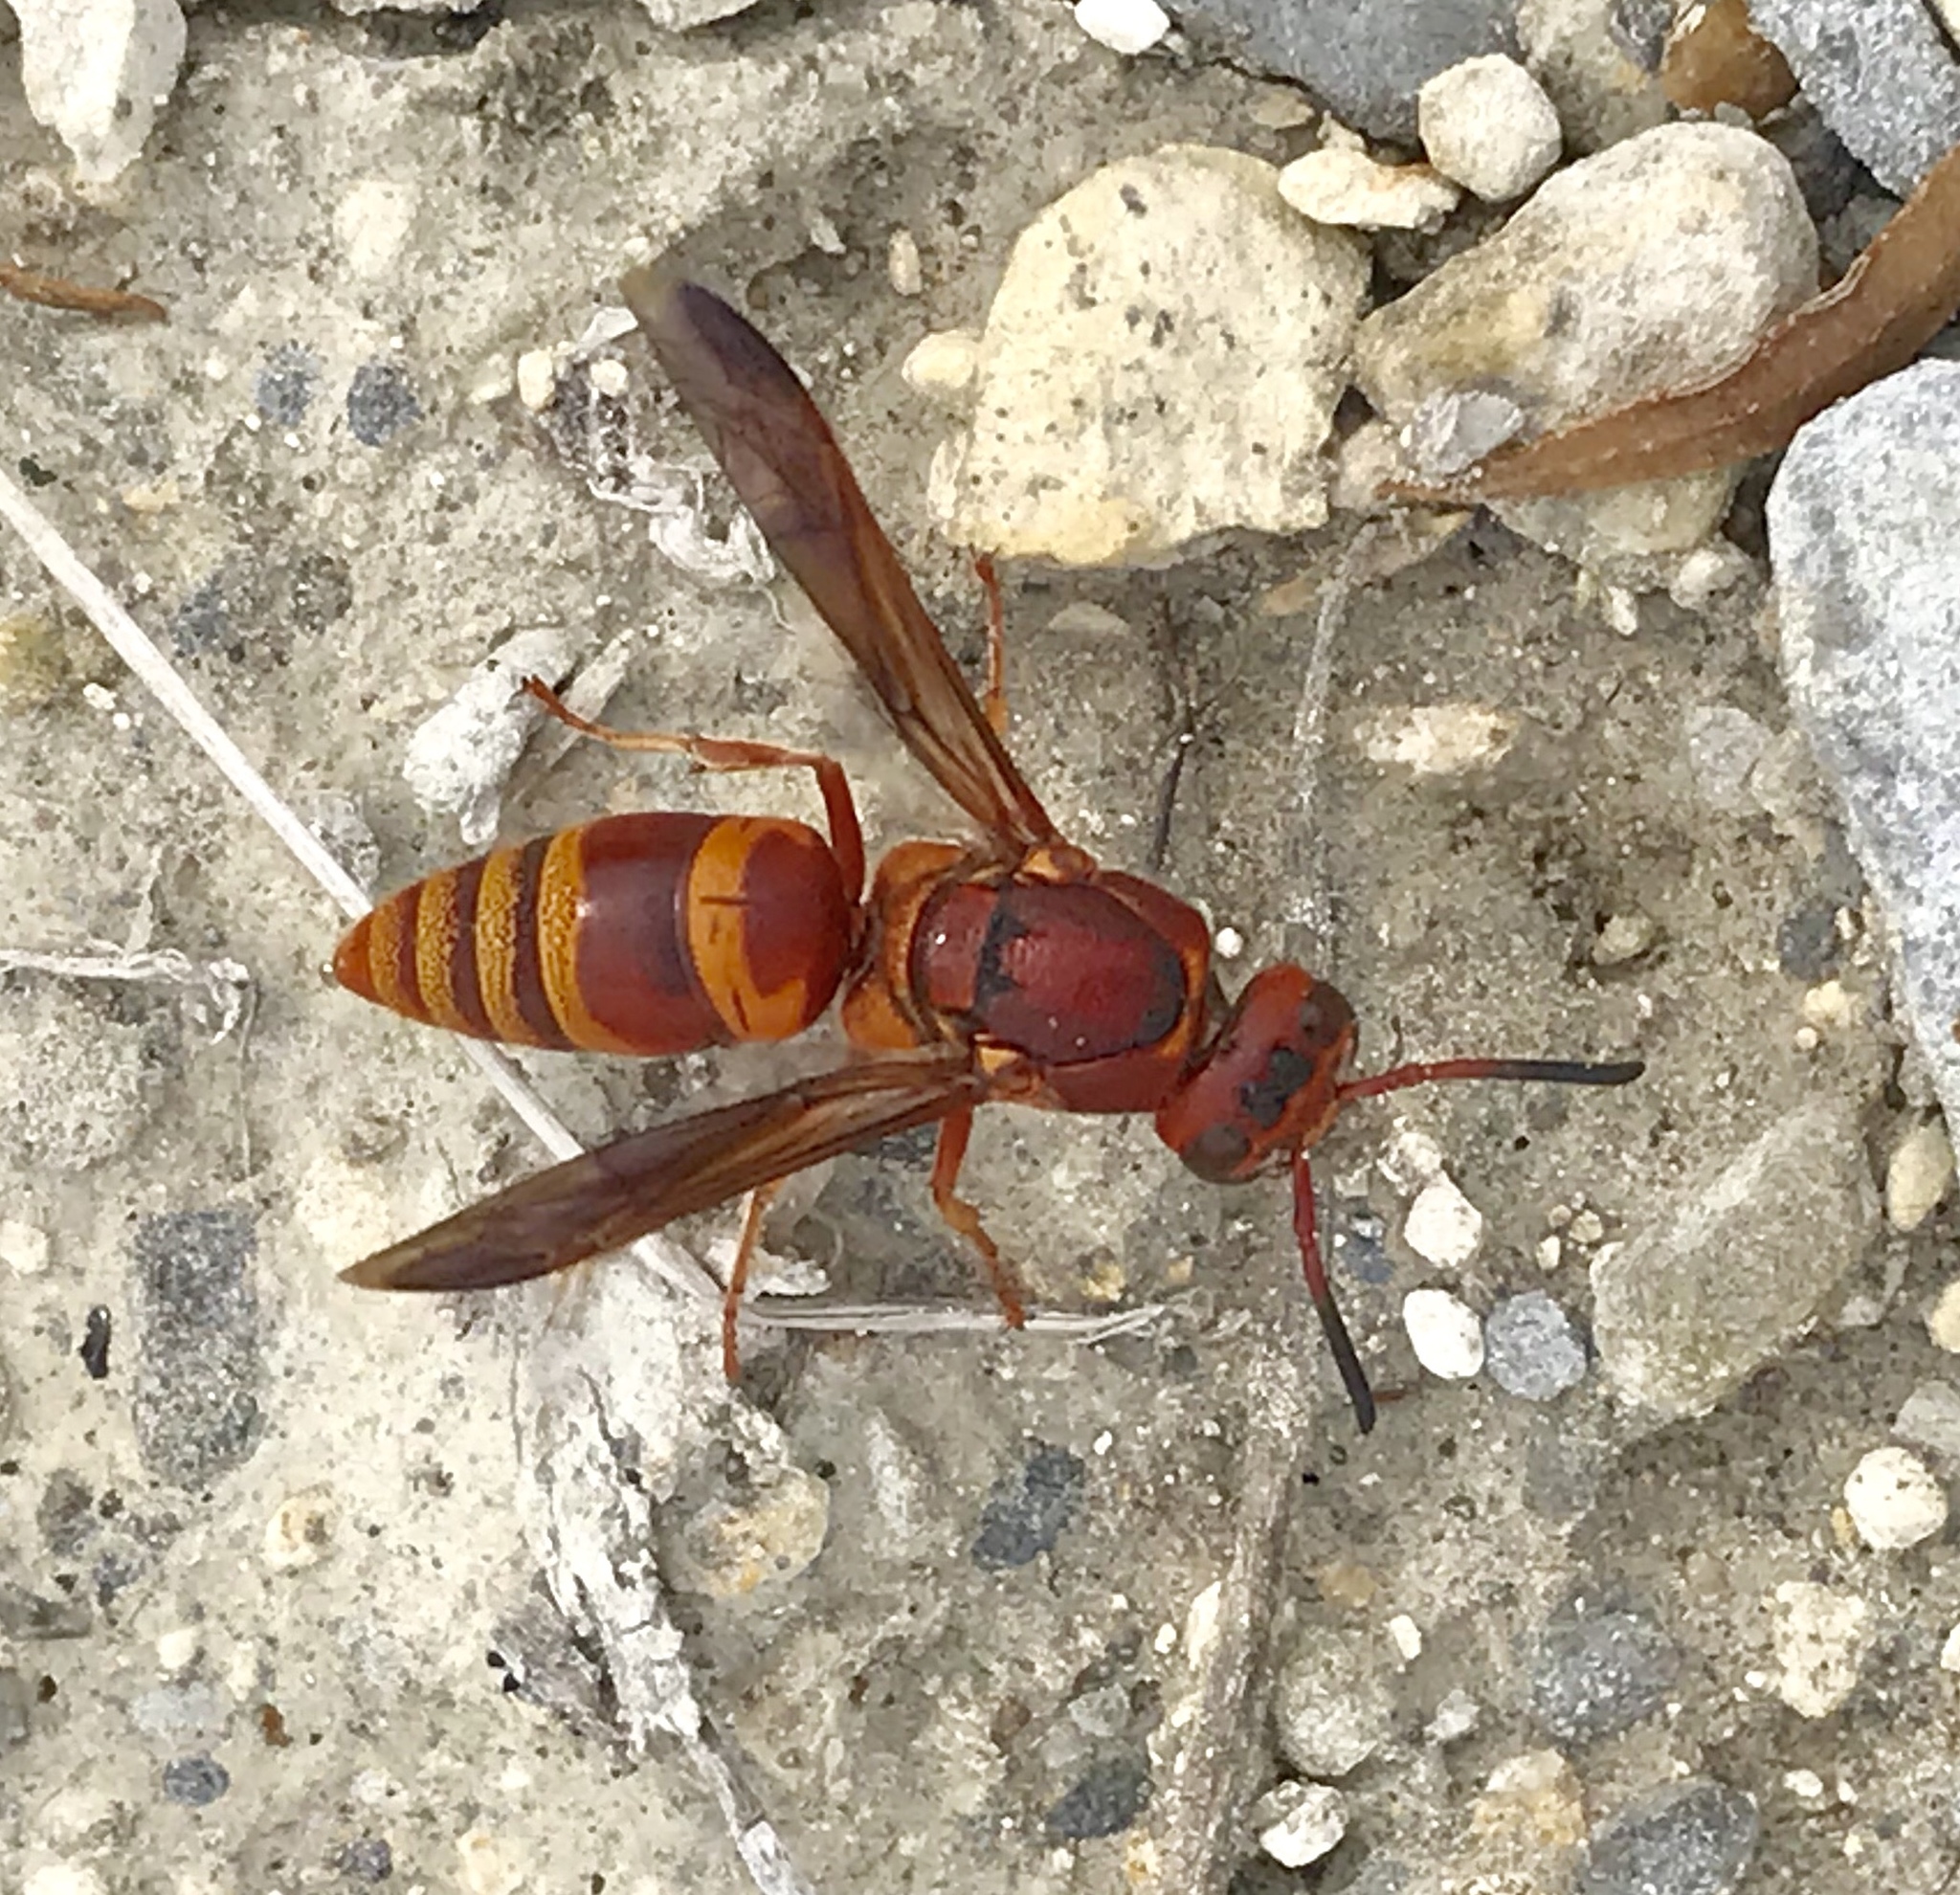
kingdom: Animalia
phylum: Arthropoda
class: Insecta
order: Hymenoptera
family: Eumenidae
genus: Euodynerus
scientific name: Euodynerus pratensis
